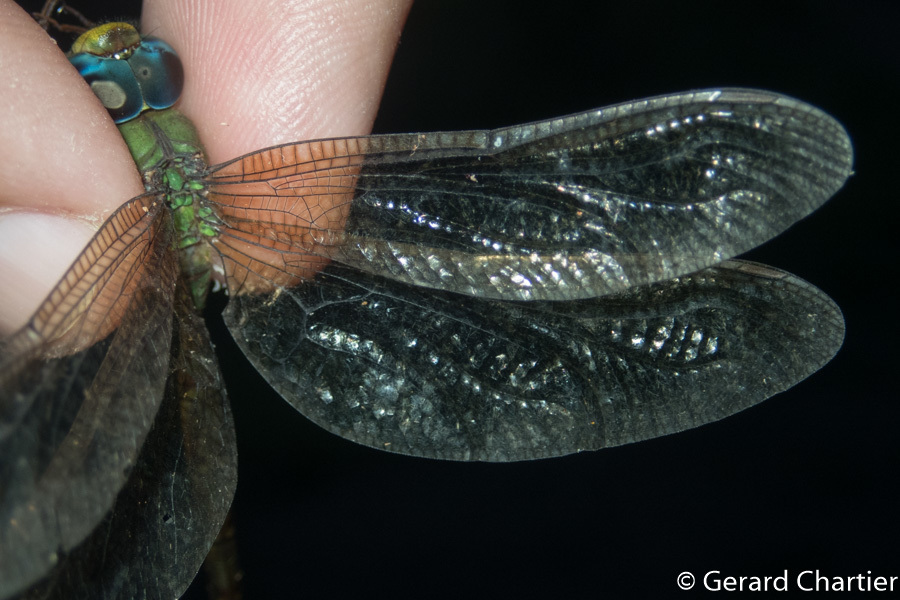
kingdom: Animalia
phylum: Arthropoda
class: Insecta
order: Odonata
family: Aeshnidae
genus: Gynacantha
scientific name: Gynacantha bayadera
